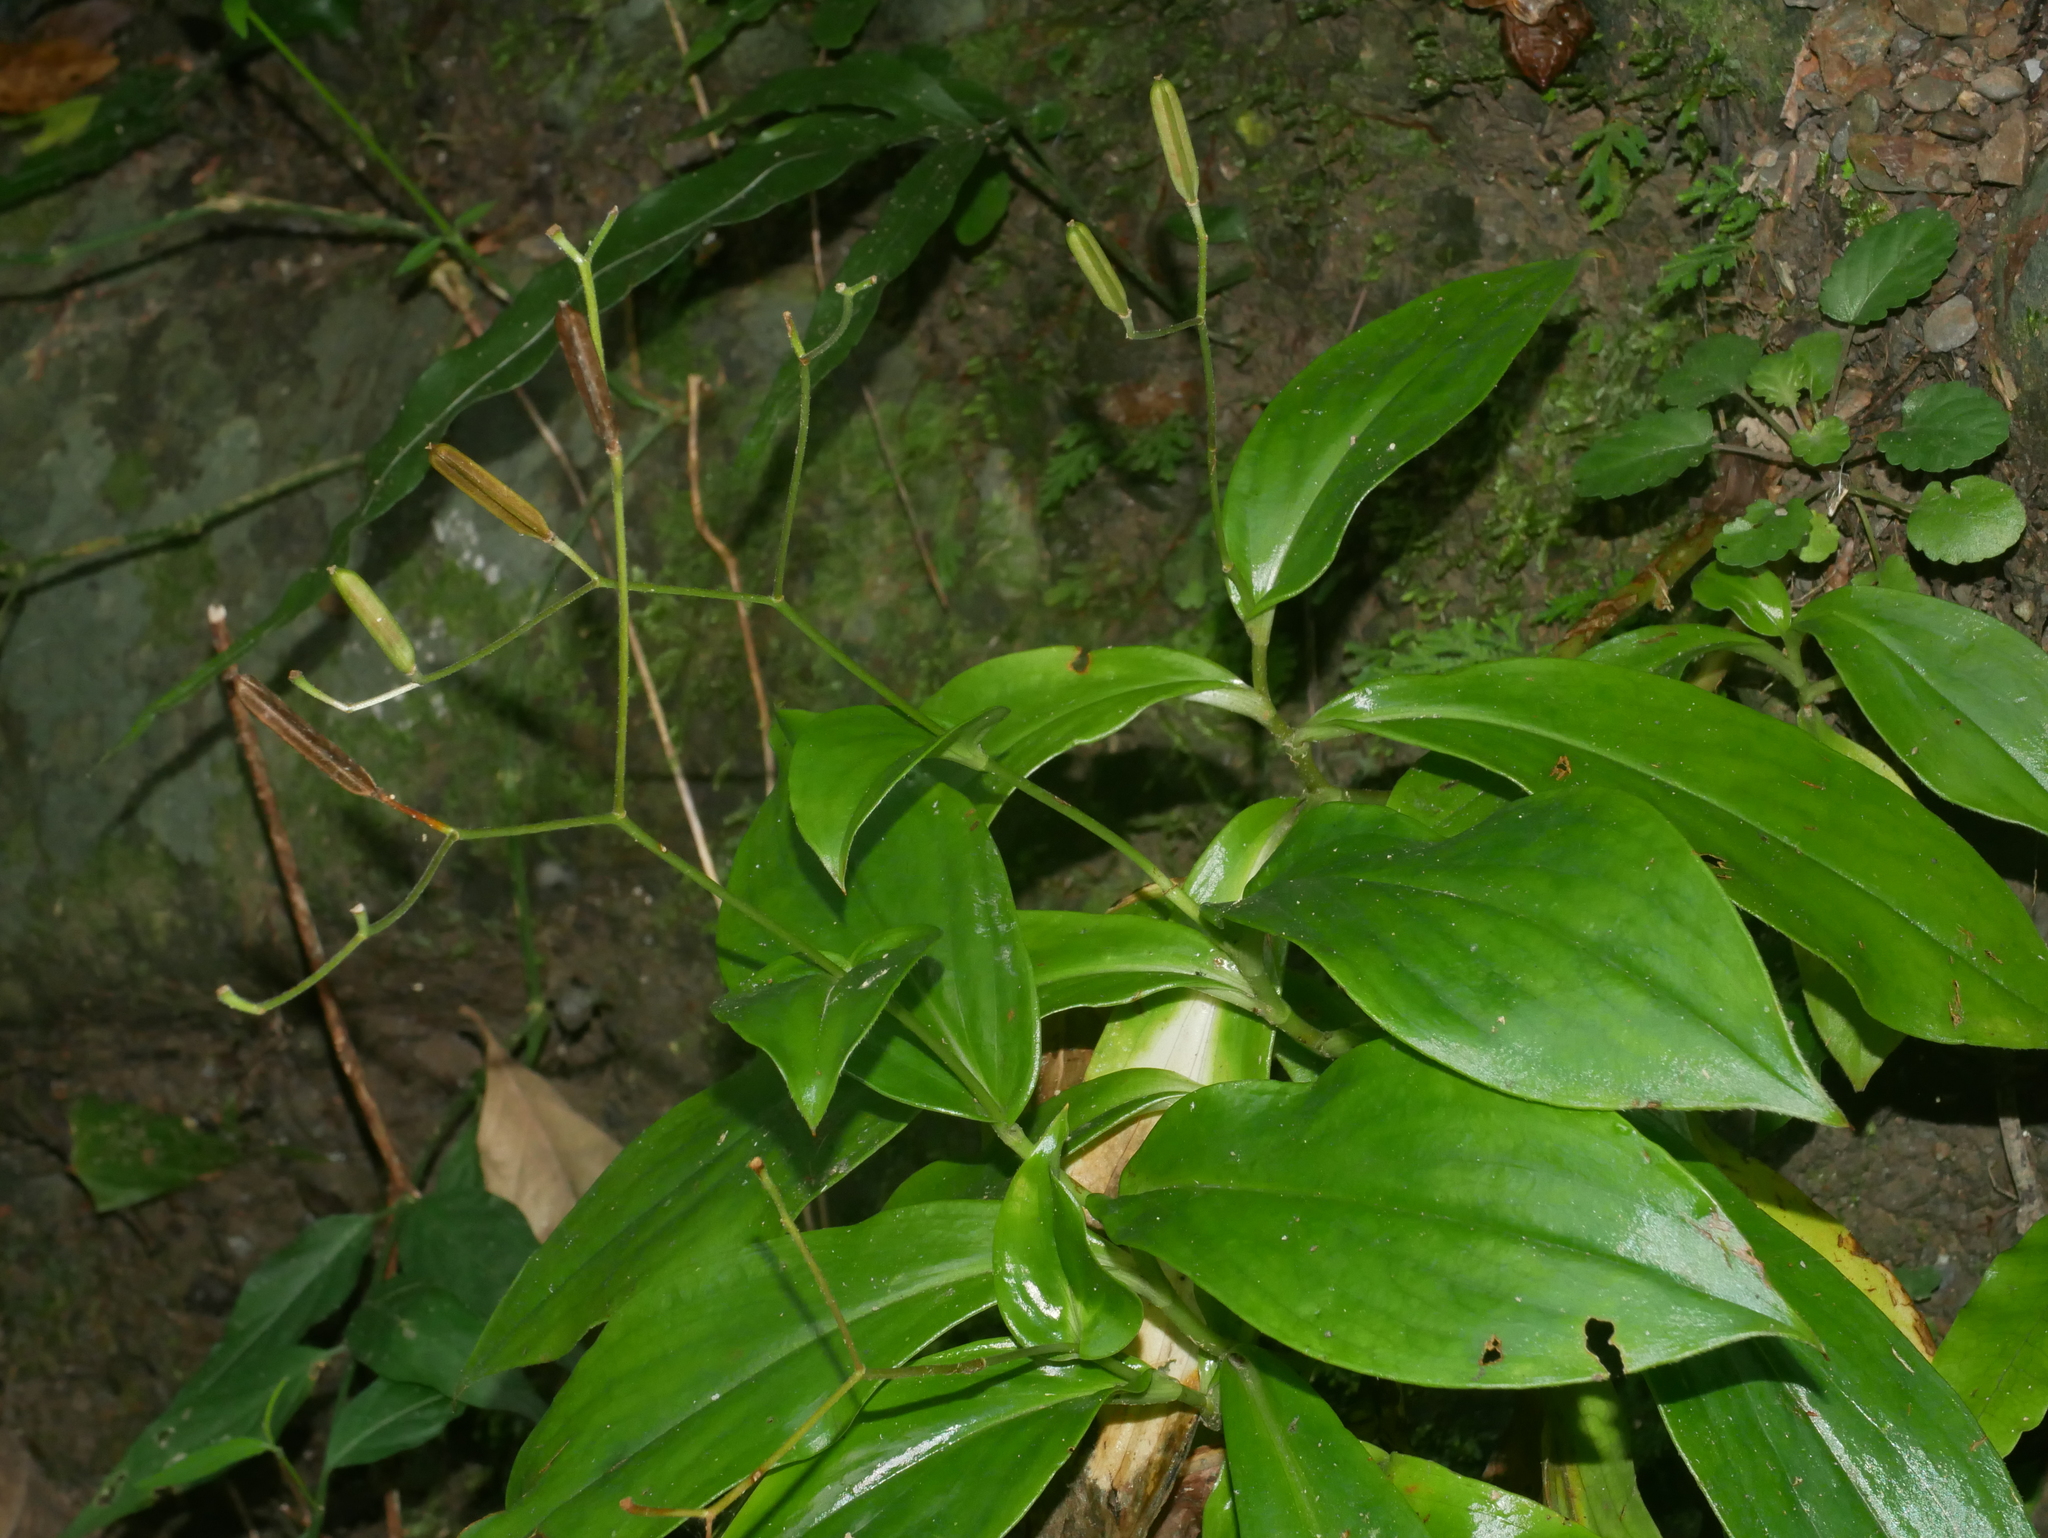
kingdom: Plantae
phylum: Tracheophyta
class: Liliopsida
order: Liliales
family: Liliaceae
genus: Tricyrtis
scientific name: Tricyrtis formosana
